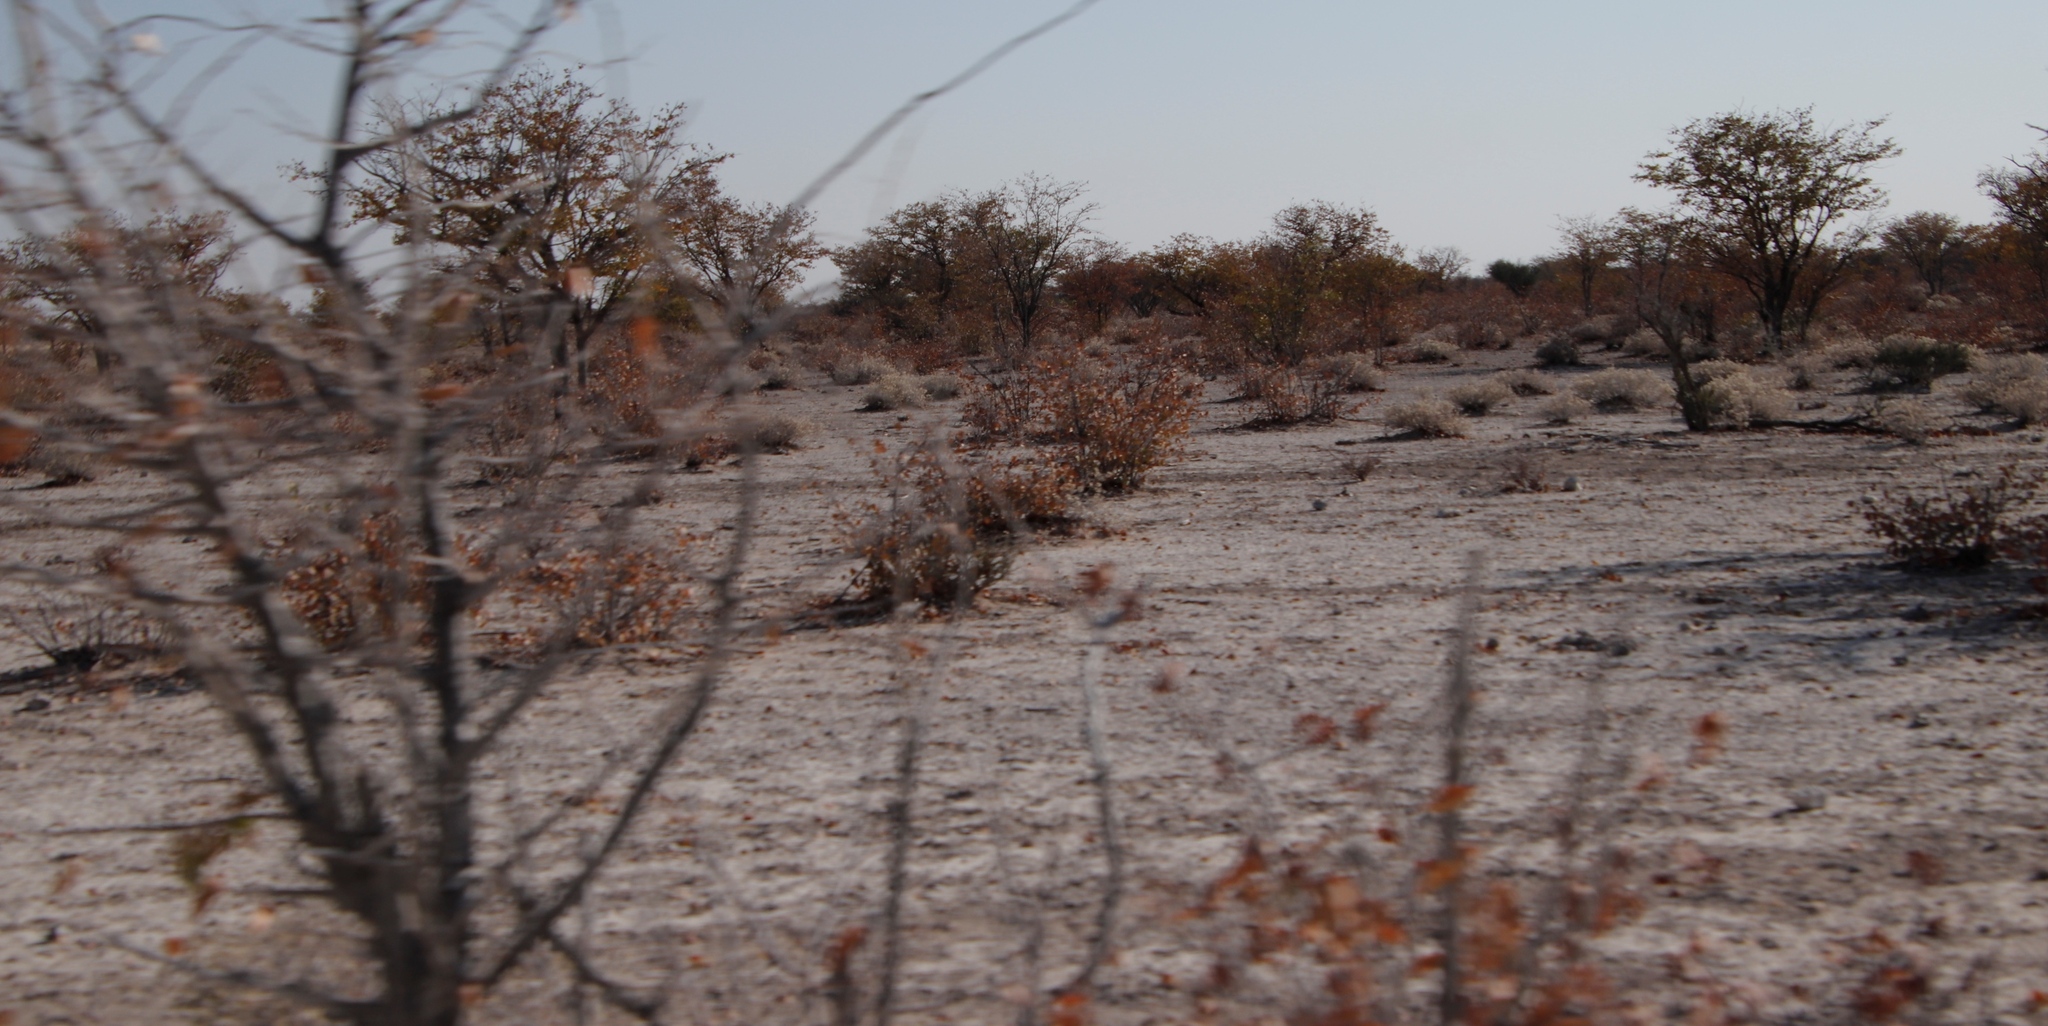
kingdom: Plantae
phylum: Tracheophyta
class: Magnoliopsida
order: Fabales
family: Fabaceae
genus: Colophospermum
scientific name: Colophospermum mopane
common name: Mopane
